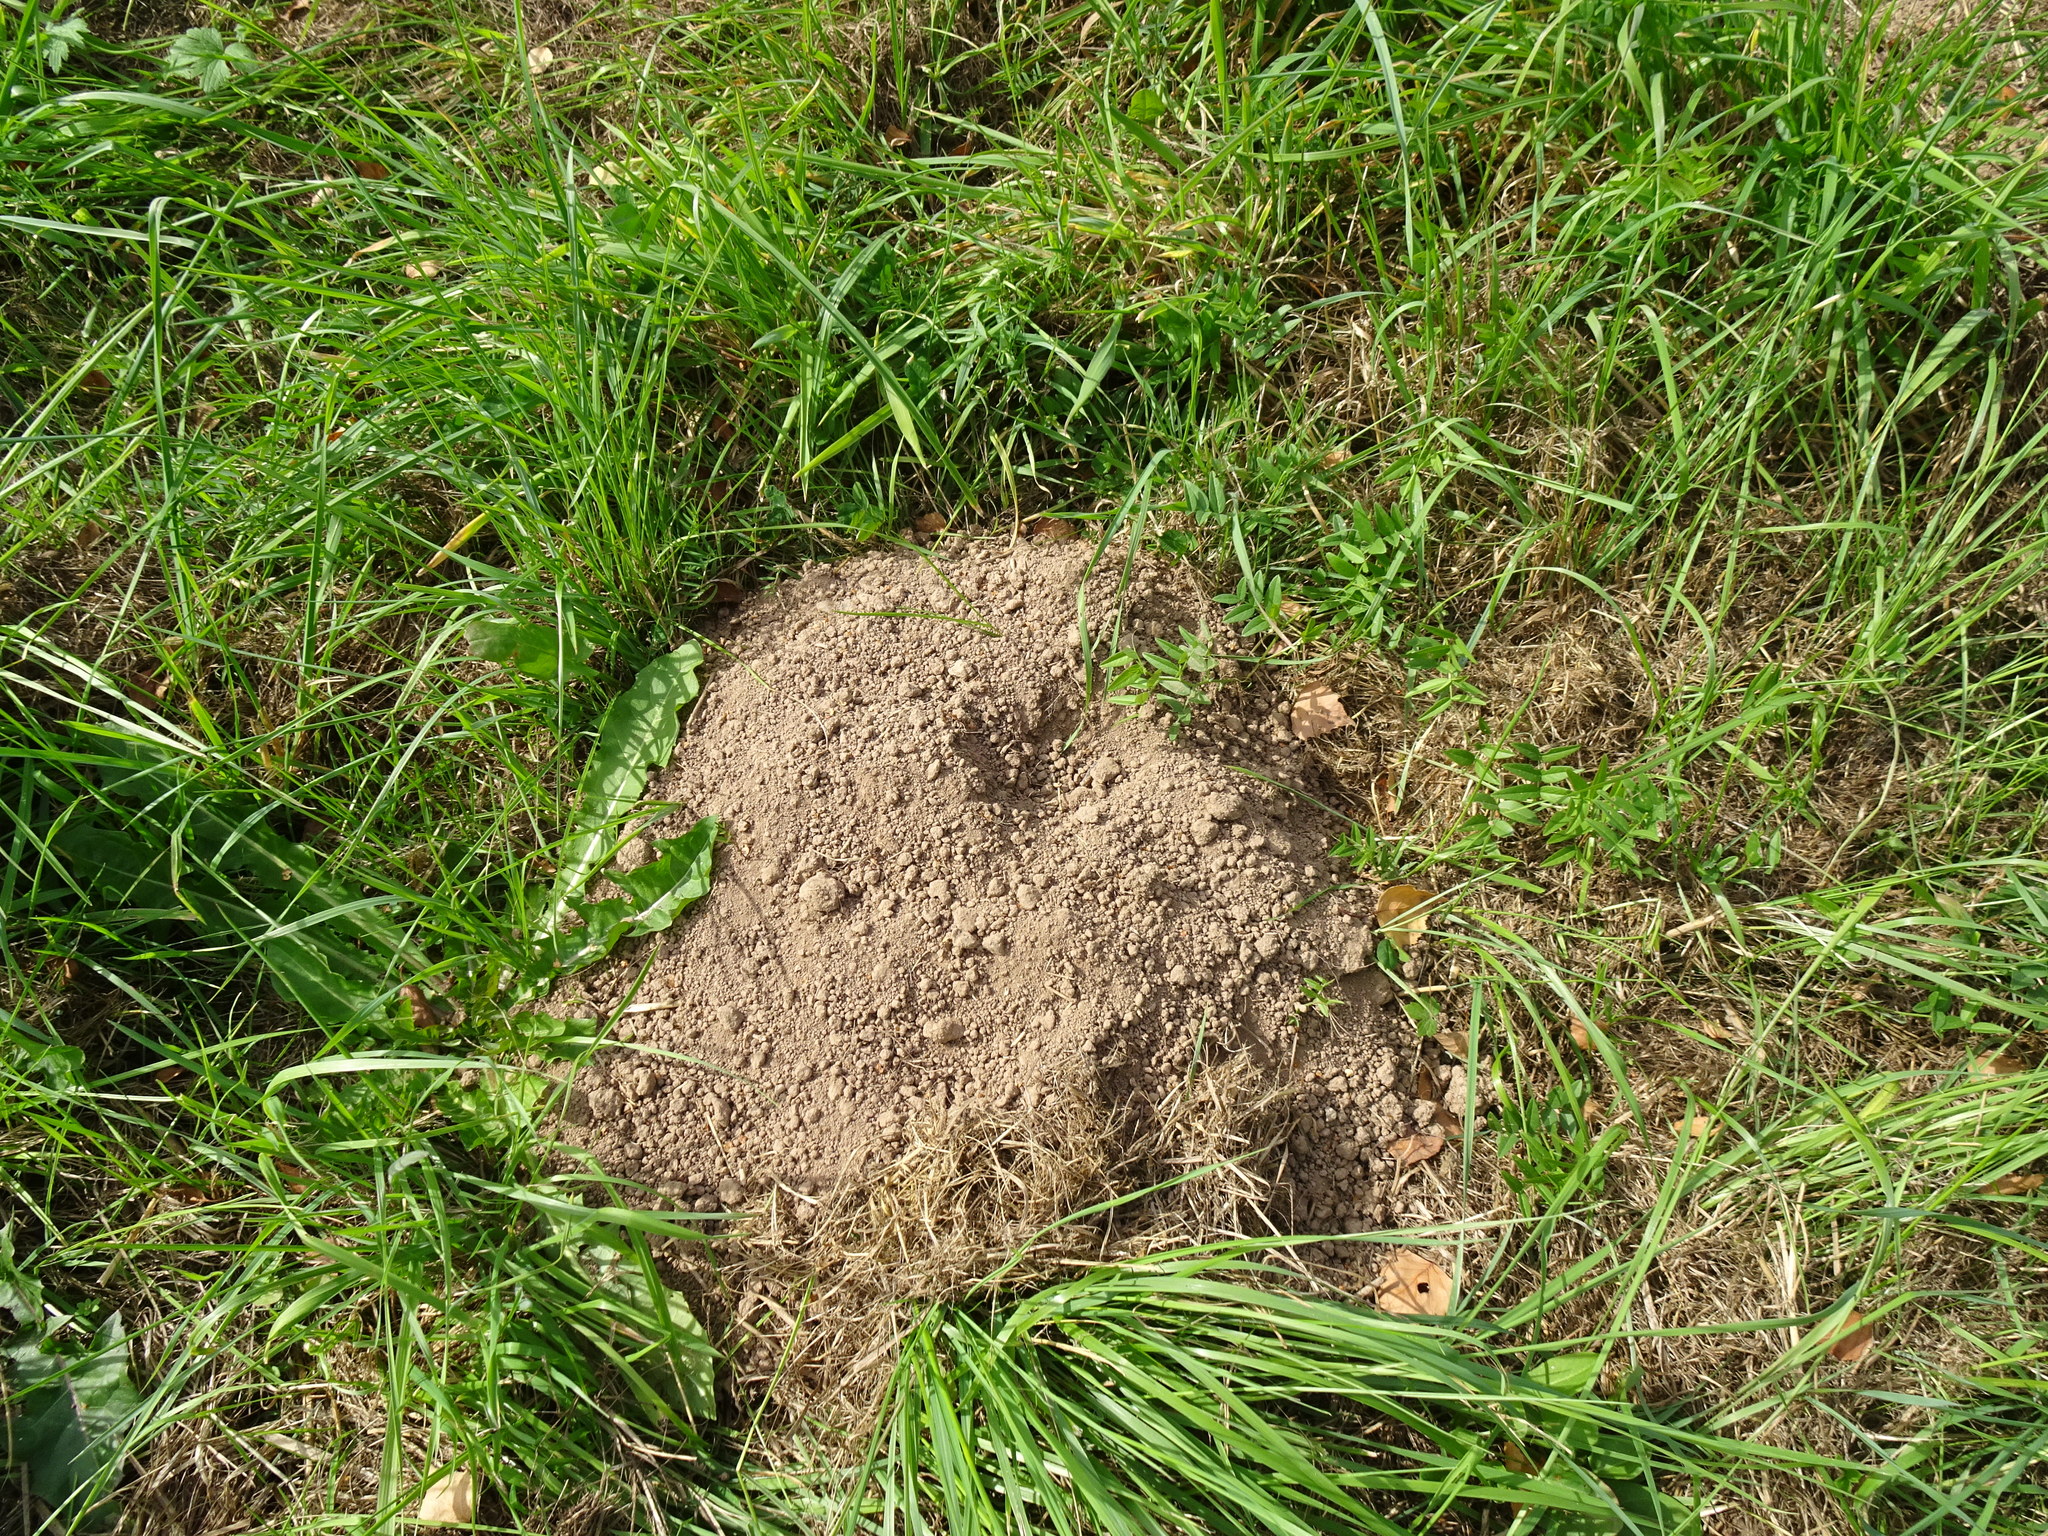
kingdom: Animalia
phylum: Chordata
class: Mammalia
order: Soricomorpha
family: Talpidae
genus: Talpa
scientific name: Talpa europaea
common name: European mole
